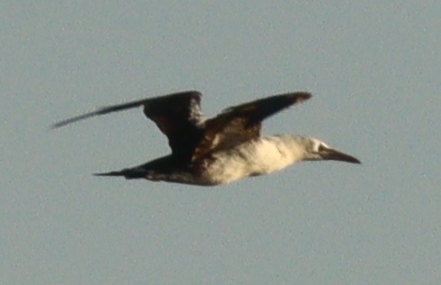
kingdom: Animalia
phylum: Chordata
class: Aves
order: Suliformes
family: Sulidae
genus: Morus
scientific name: Morus bassanus
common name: Northern gannet
